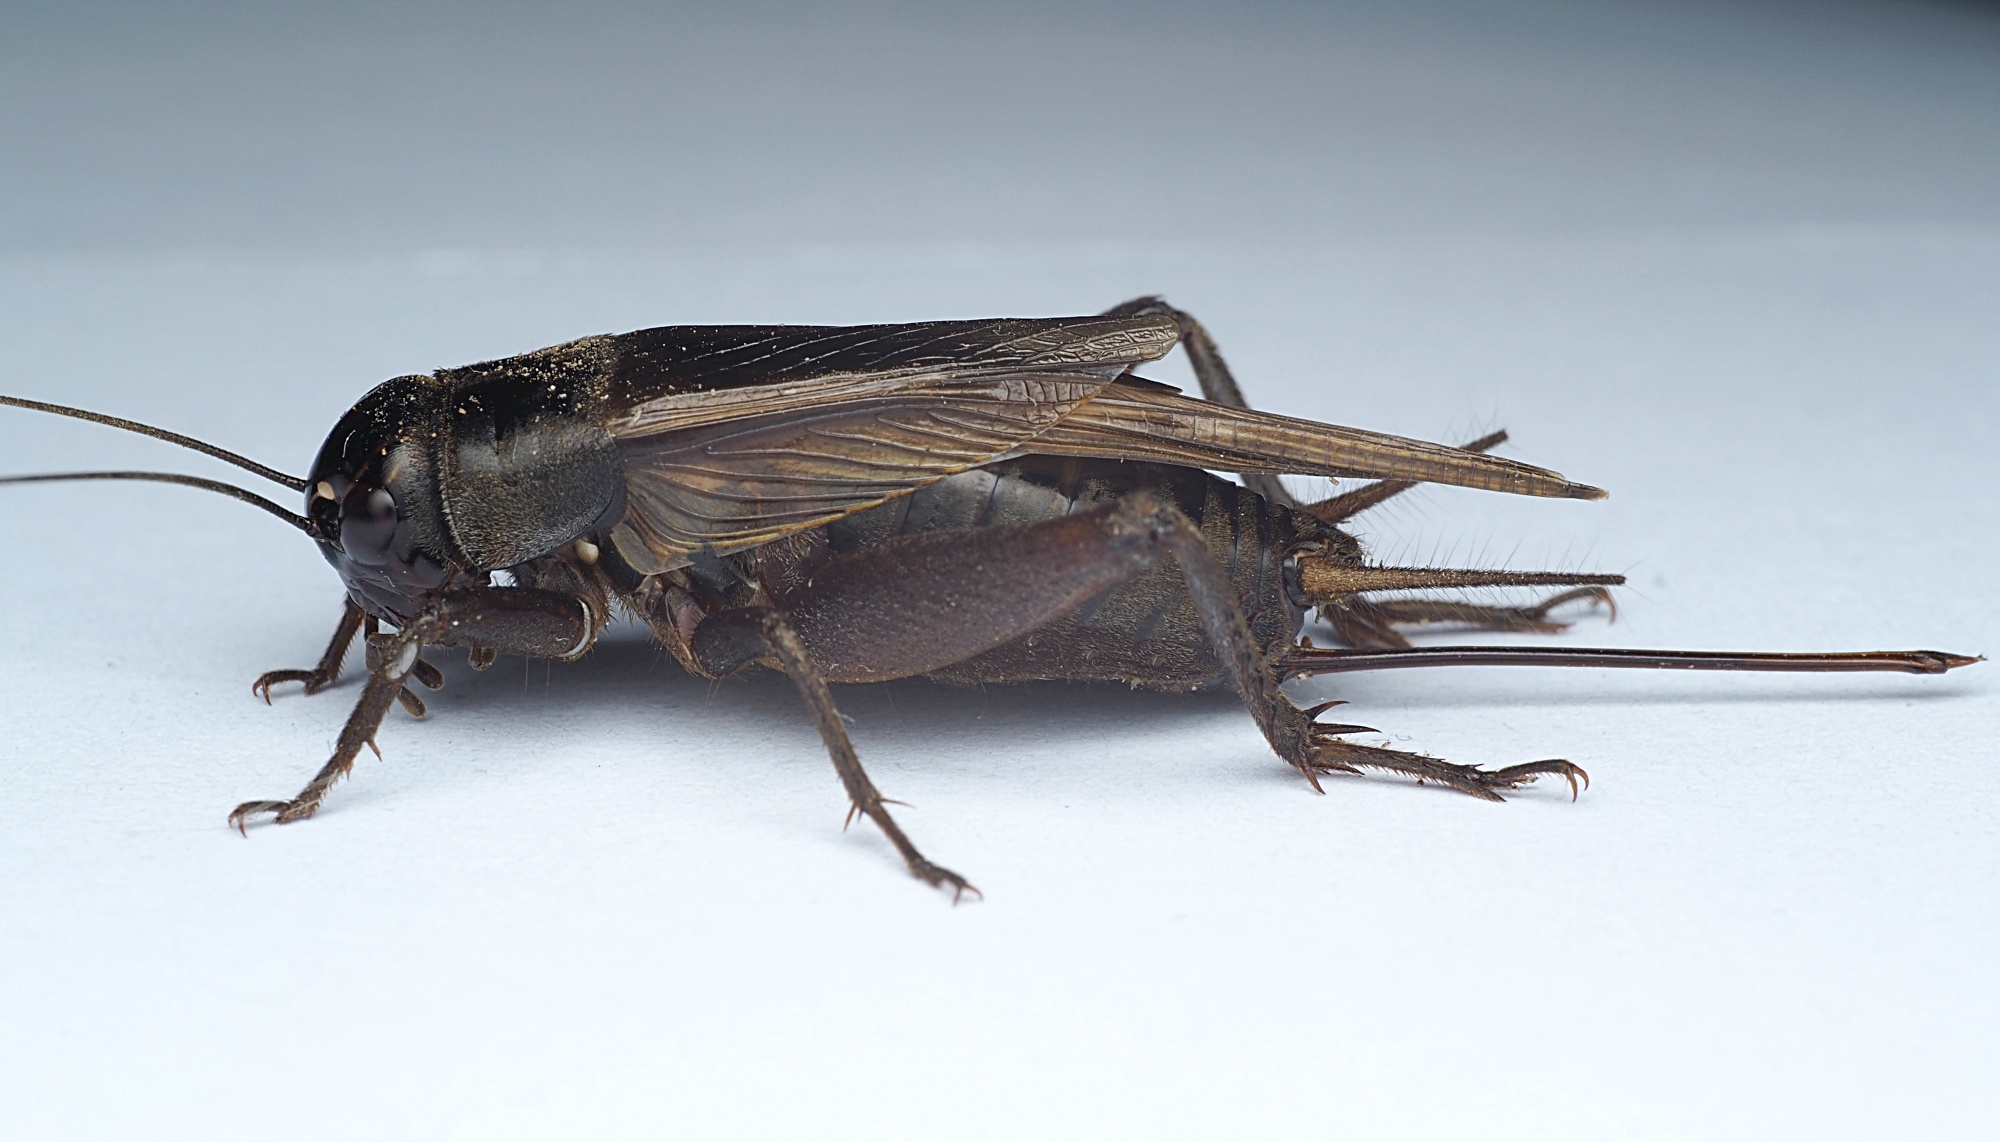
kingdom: Animalia
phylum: Arthropoda
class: Insecta
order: Orthoptera
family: Gryllidae
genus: Teleogryllus
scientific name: Teleogryllus commodus
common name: Black field cricket
